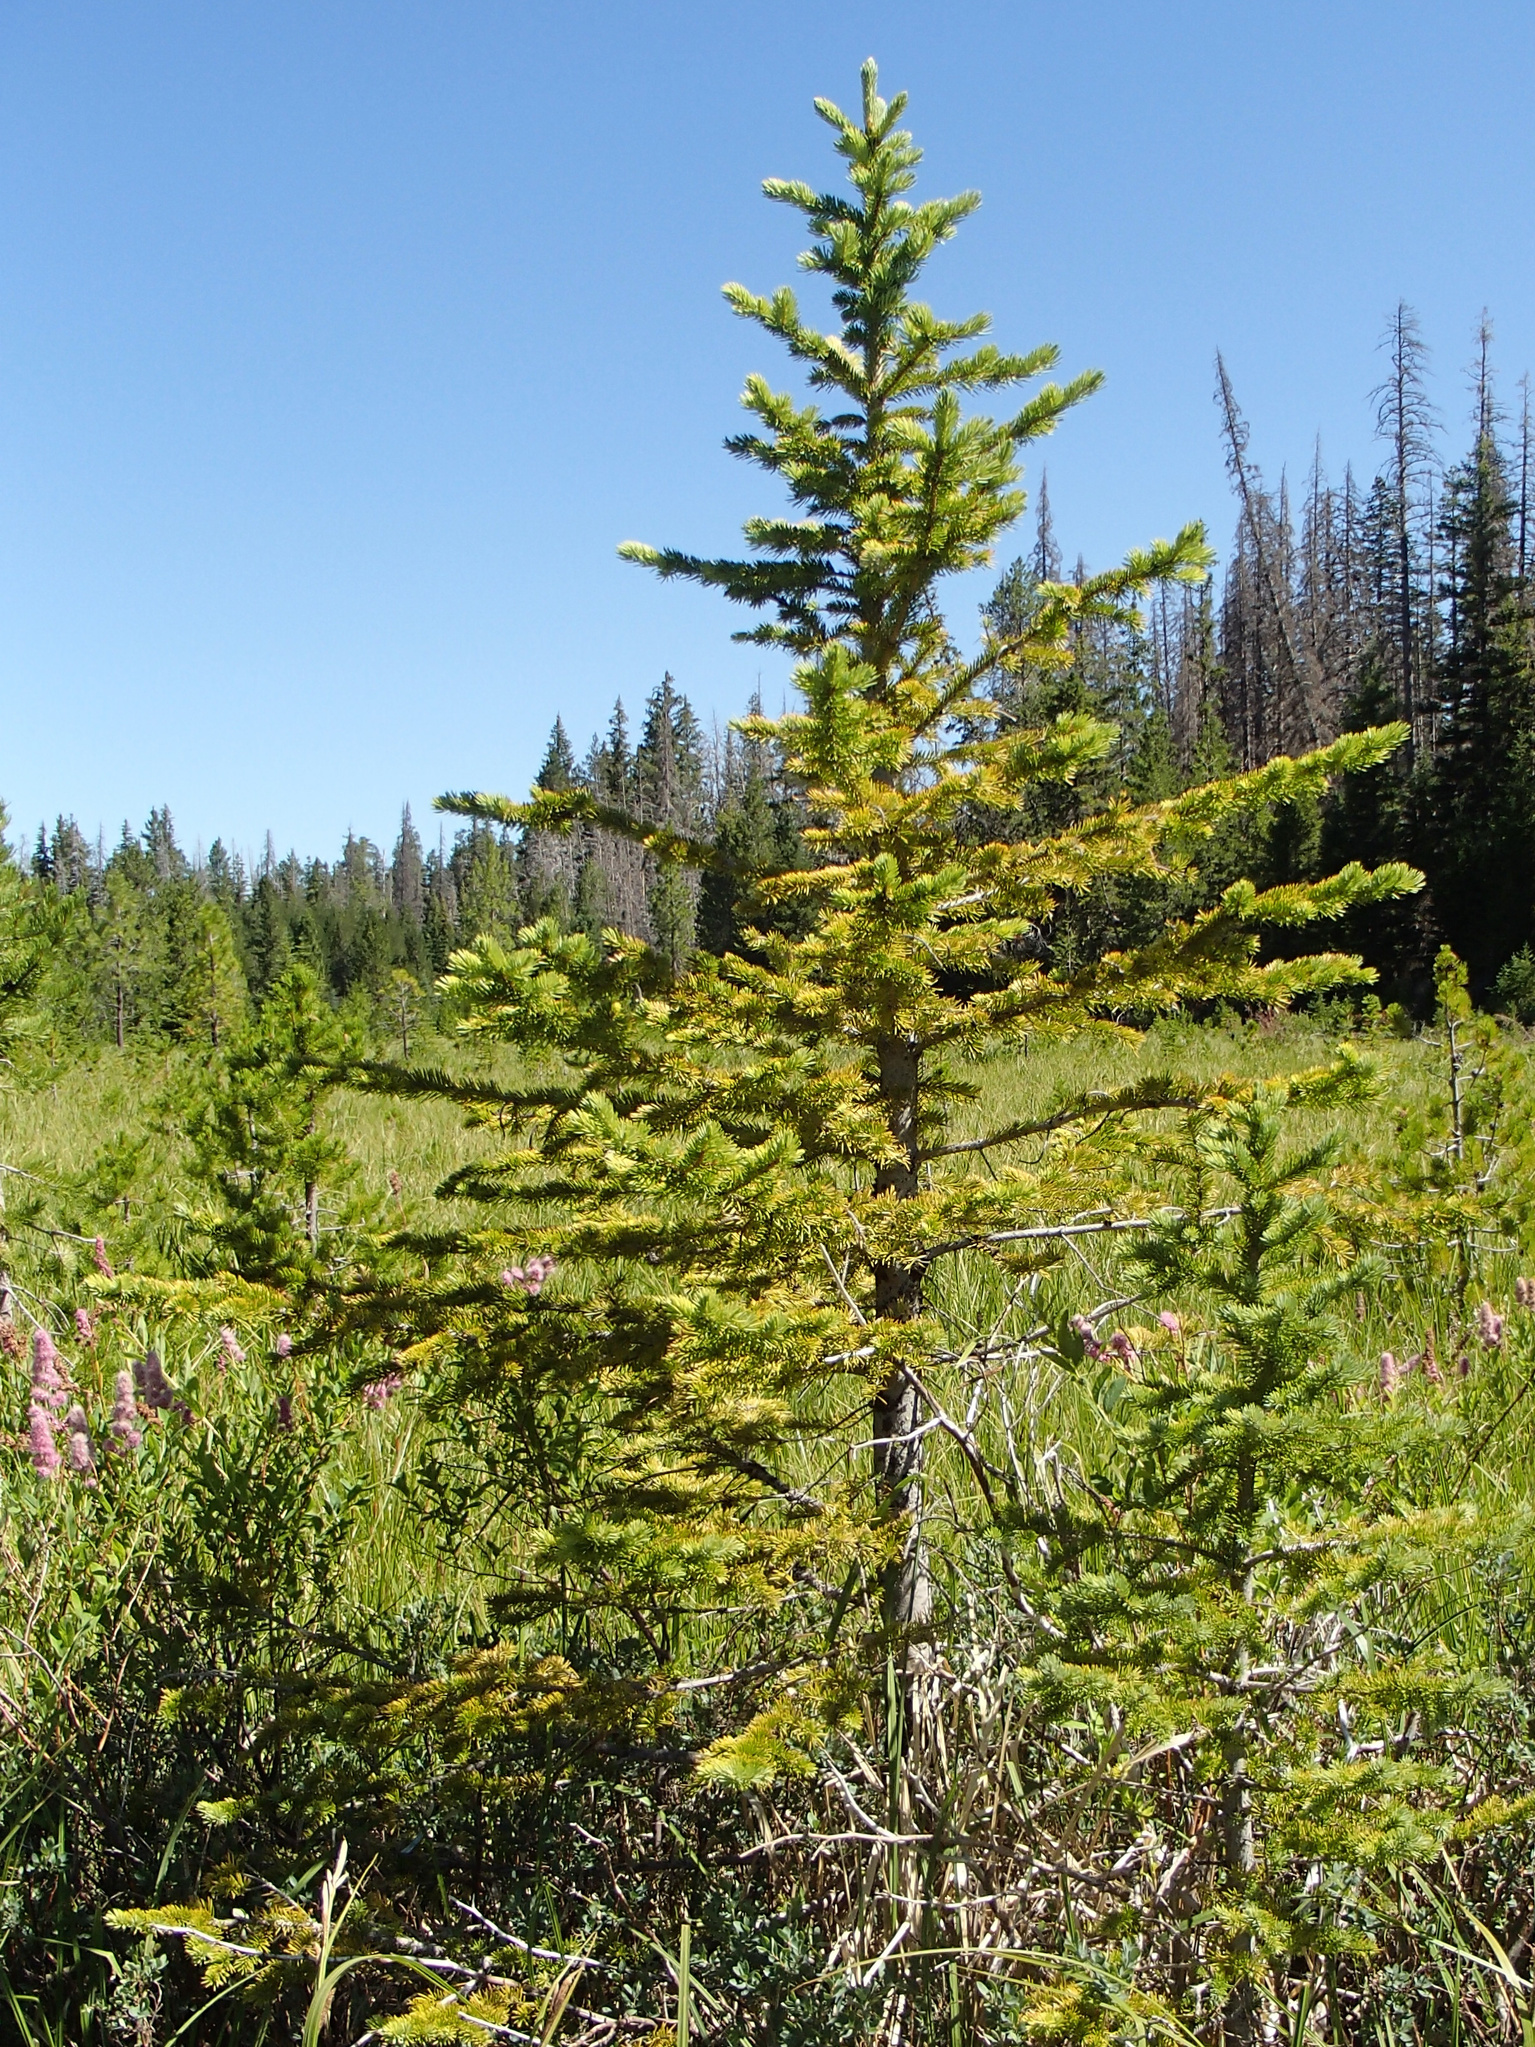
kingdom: Plantae
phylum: Tracheophyta
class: Pinopsida
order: Pinales
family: Pinaceae
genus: Picea
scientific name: Picea engelmannii
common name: Engelmann spruce
